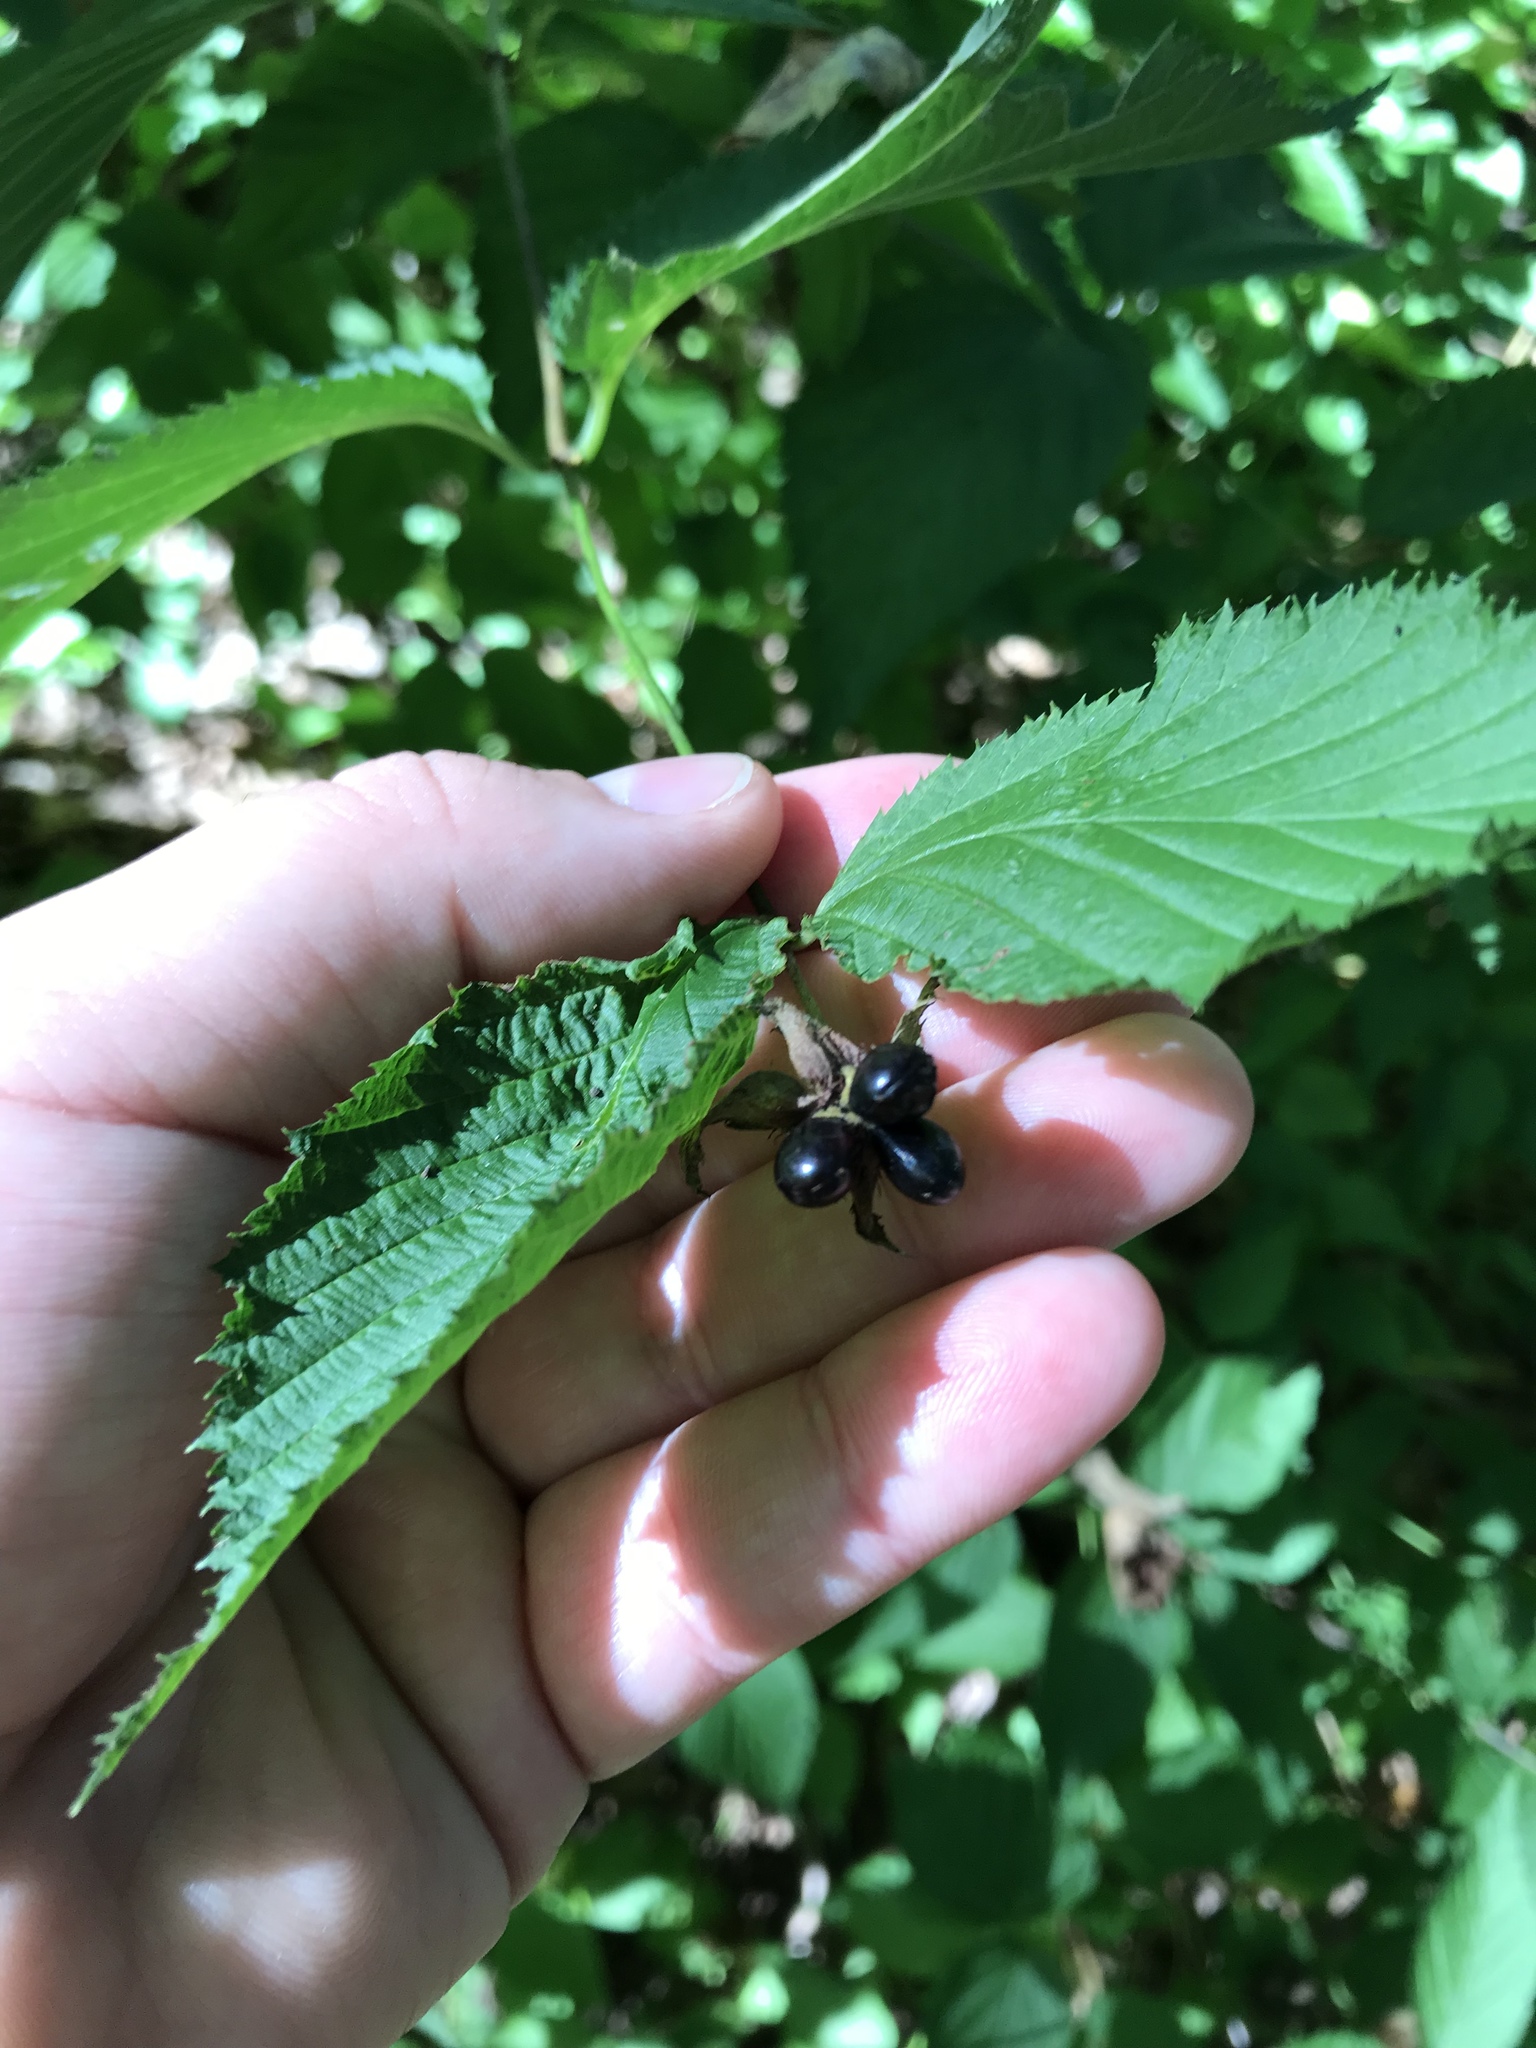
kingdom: Plantae
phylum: Tracheophyta
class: Magnoliopsida
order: Rosales
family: Rosaceae
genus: Rhodotypos
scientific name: Rhodotypos scandens
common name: Jetbead
